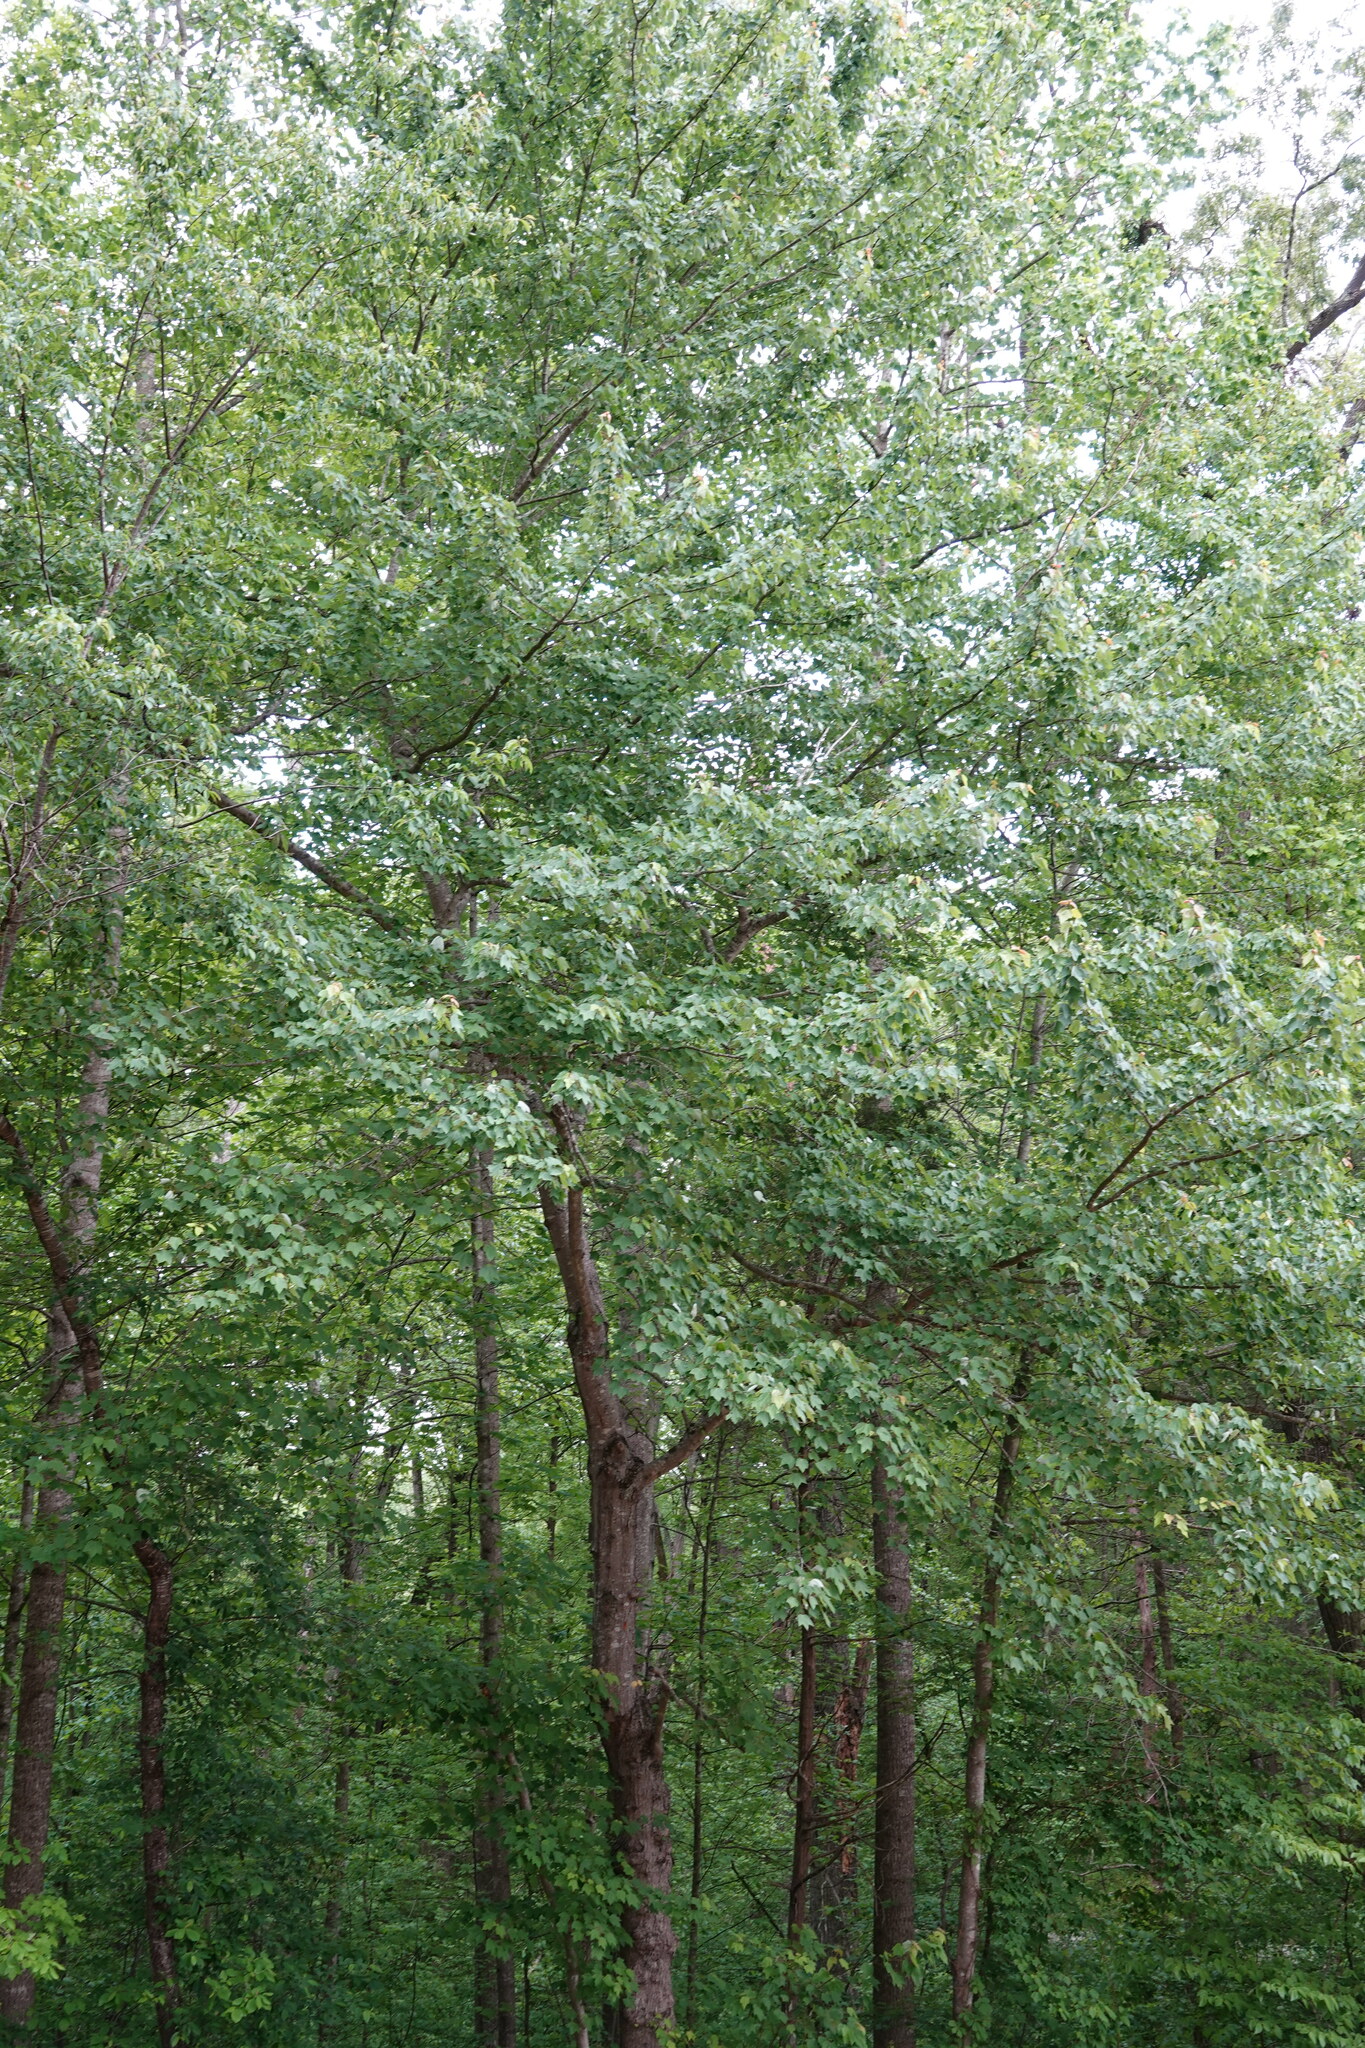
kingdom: Plantae
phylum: Tracheophyta
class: Magnoliopsida
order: Sapindales
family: Sapindaceae
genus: Acer
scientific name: Acer rubrum
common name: Red maple
